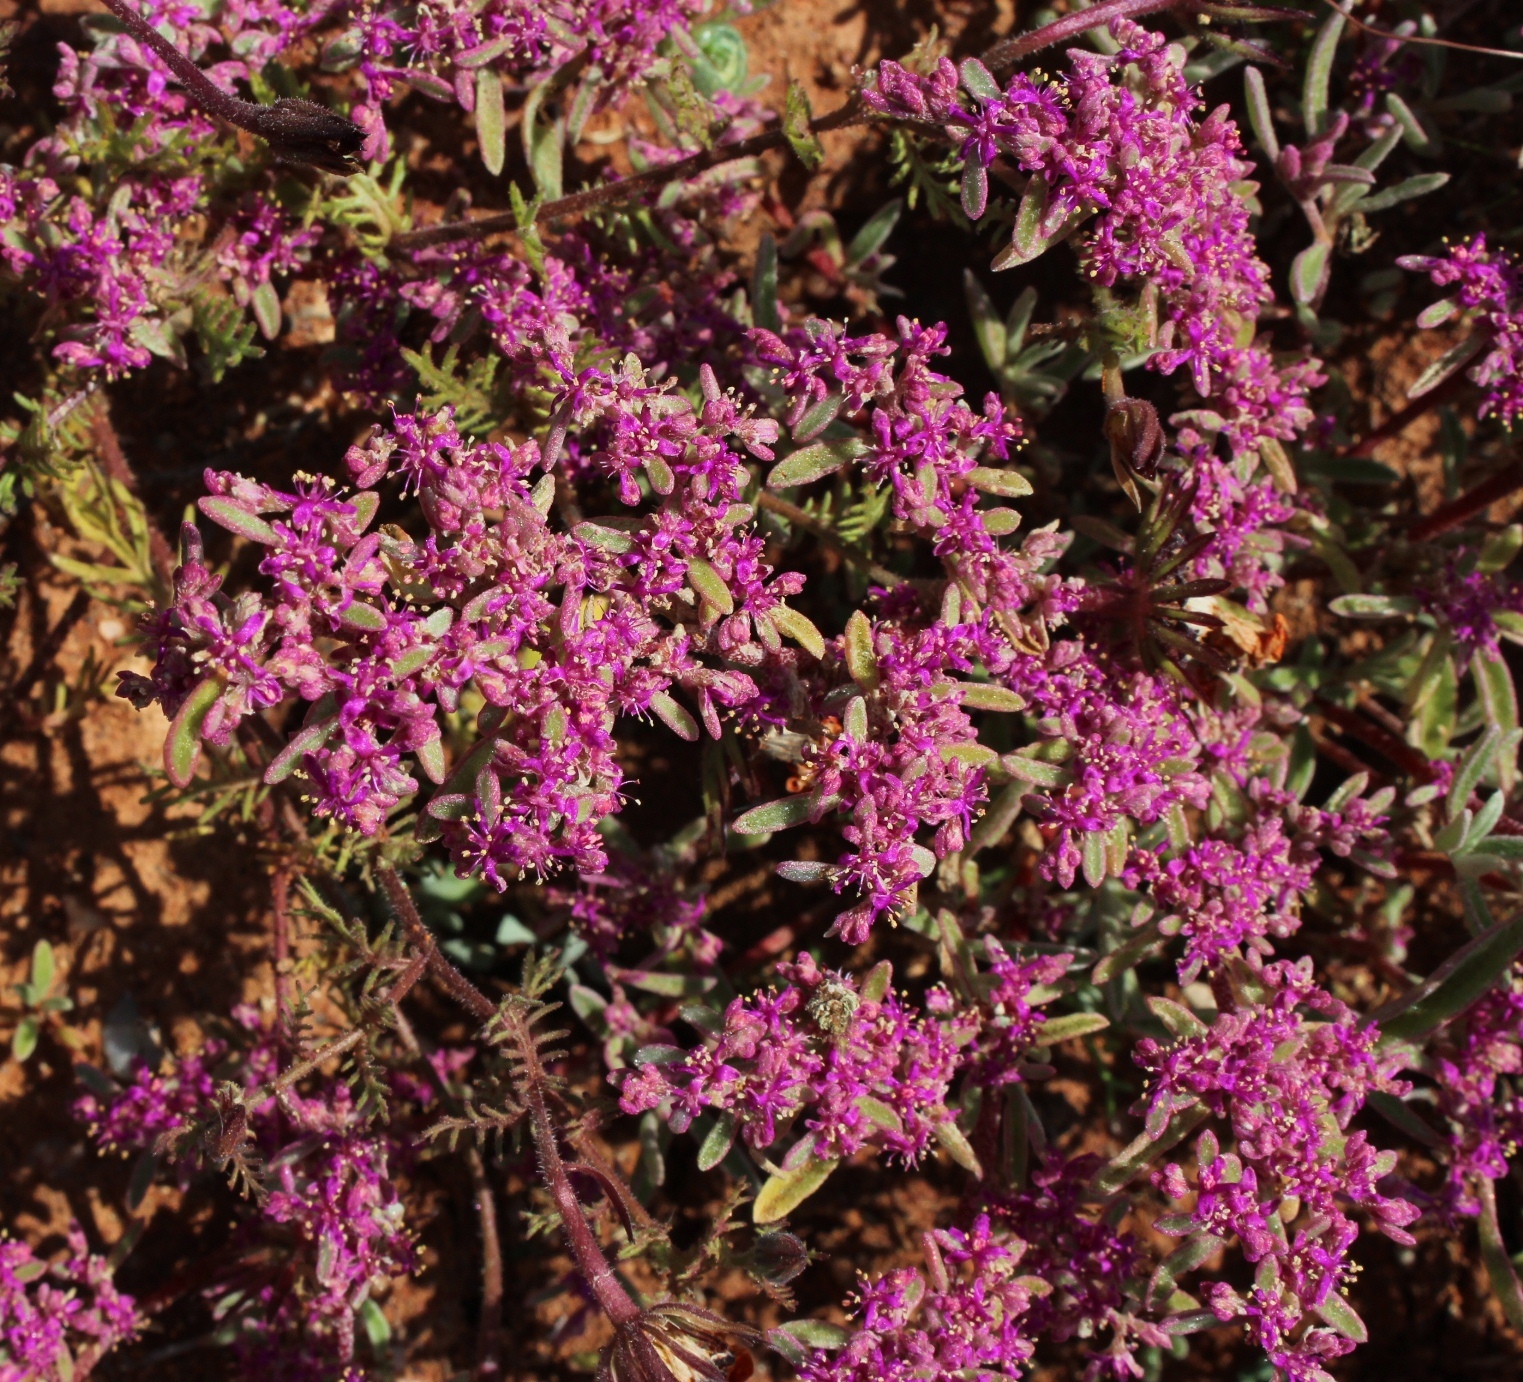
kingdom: Plantae
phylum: Tracheophyta
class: Magnoliopsida
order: Caryophyllales
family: Aizoaceae
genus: Aizoon
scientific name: Aizoon papulosum
